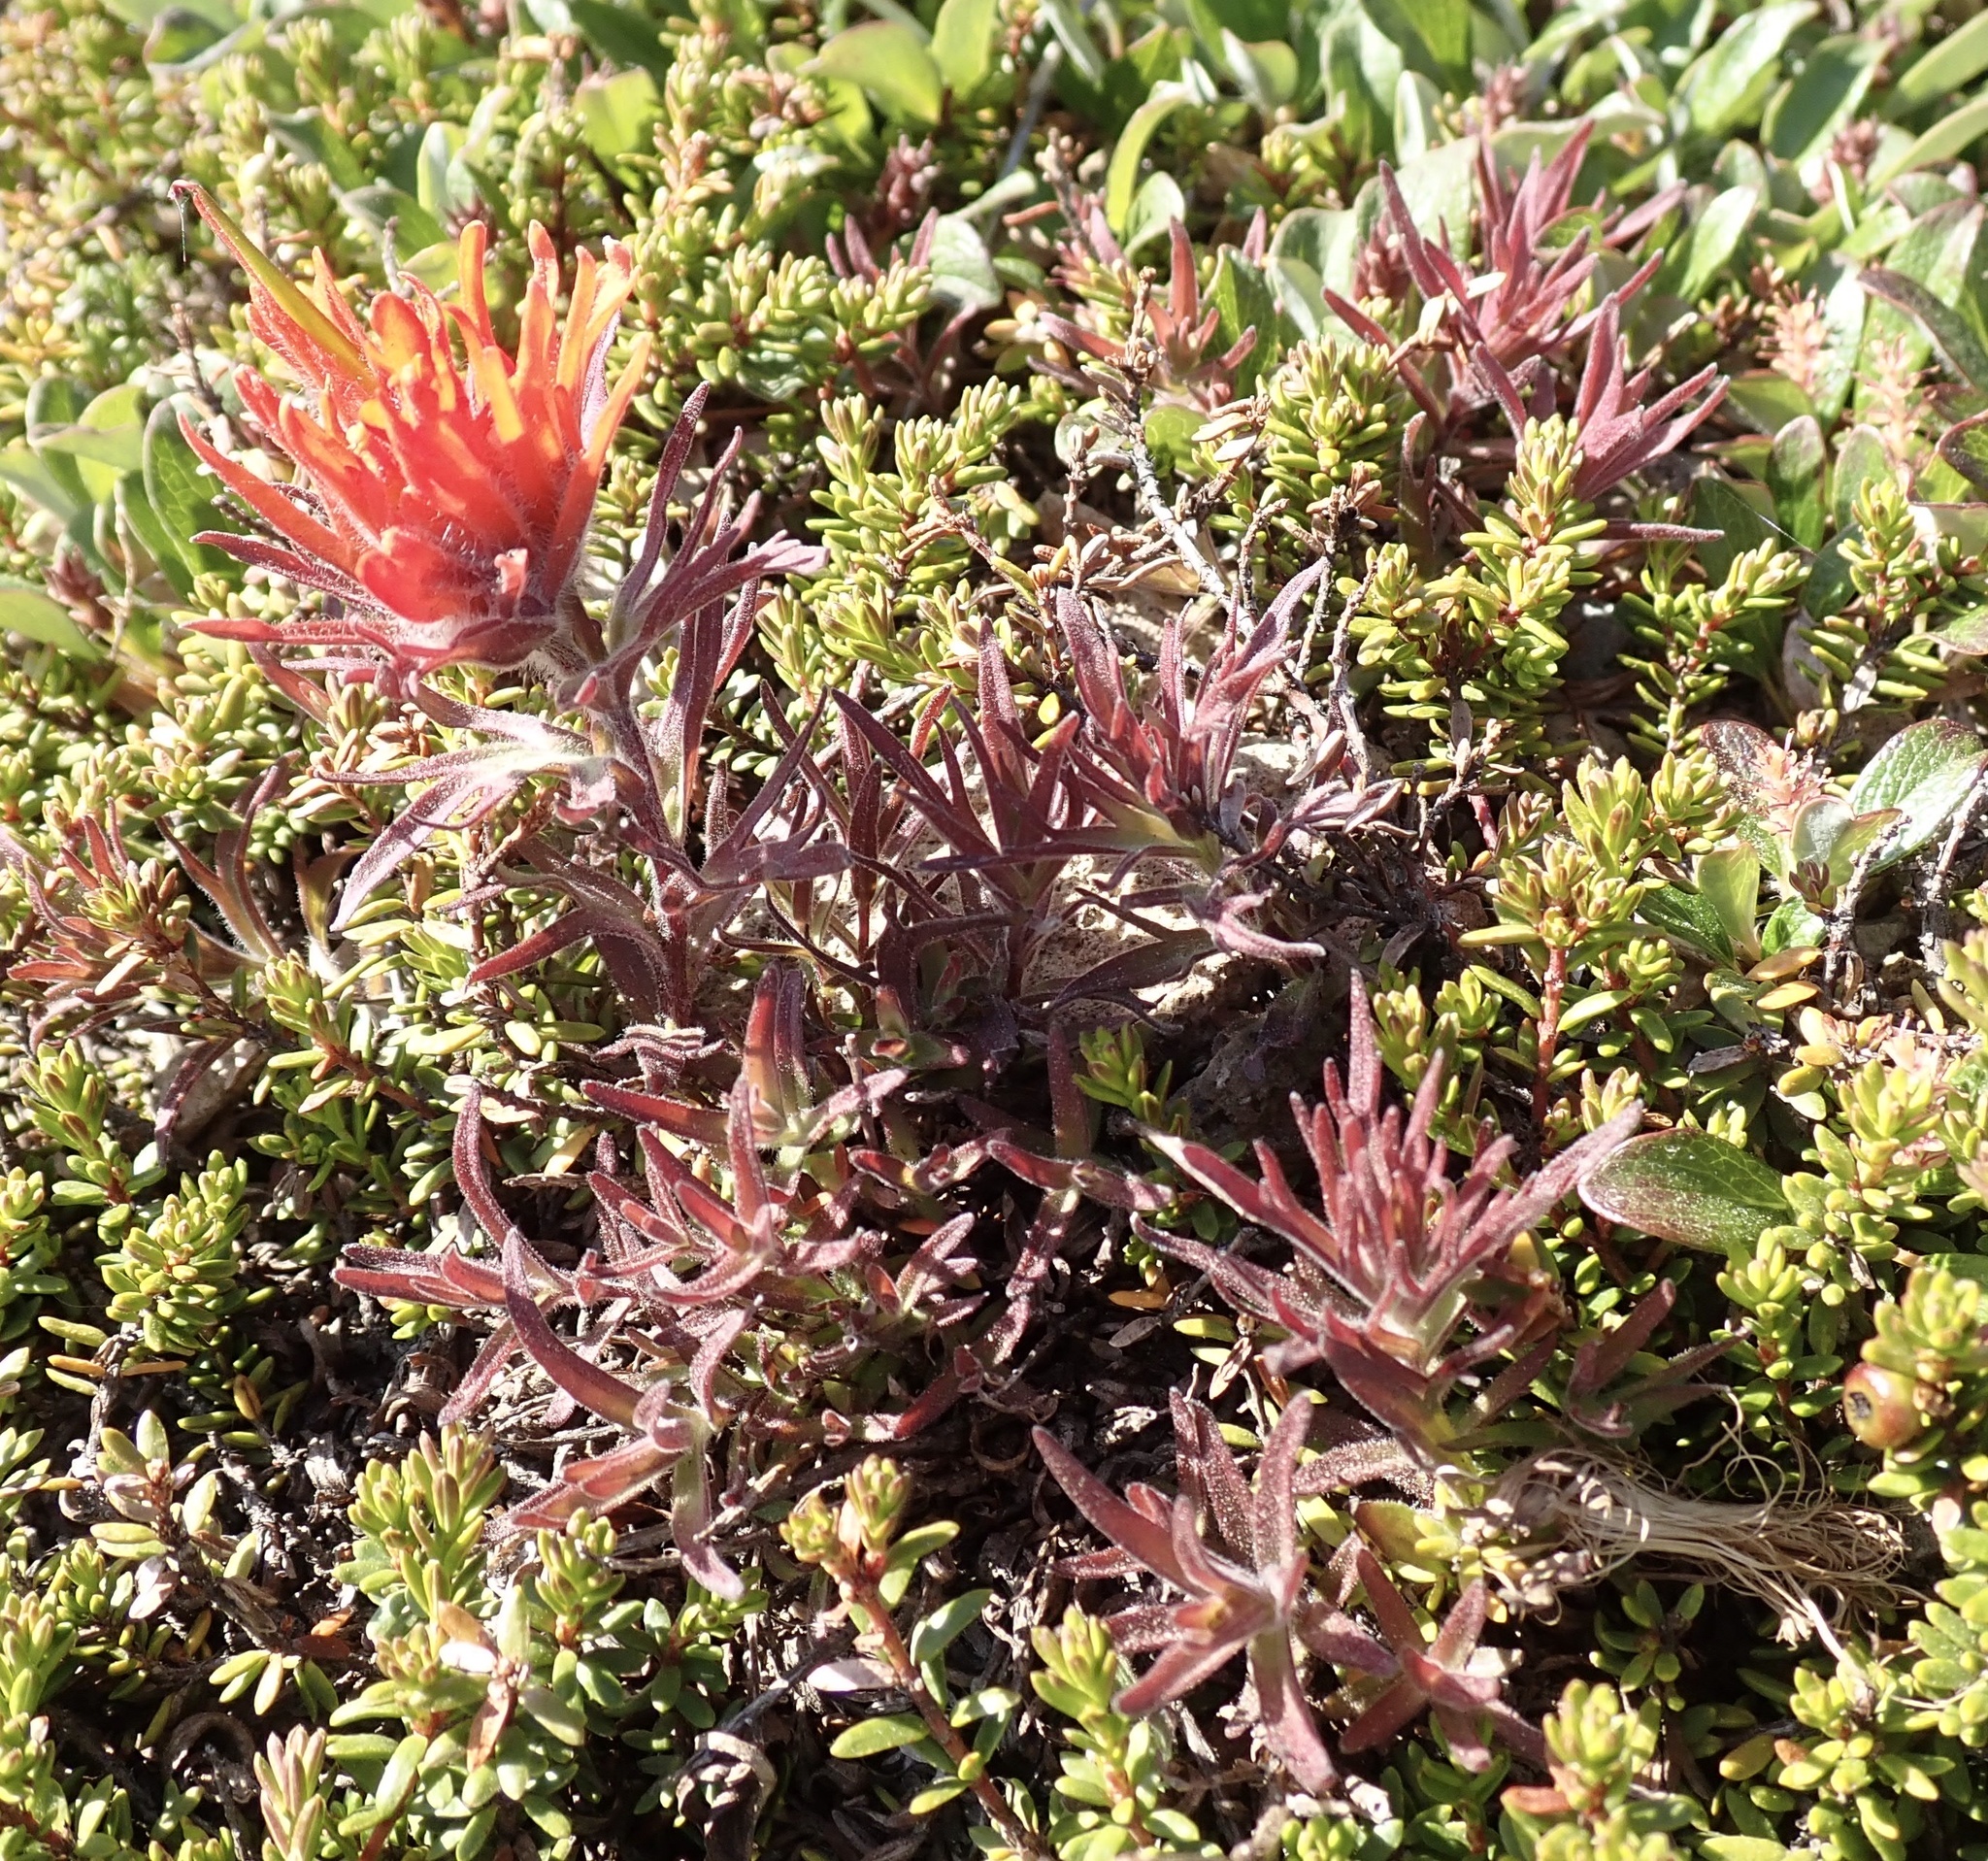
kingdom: Plantae
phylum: Tracheophyta
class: Magnoliopsida
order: Lamiales
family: Orobanchaceae
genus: Castilleja
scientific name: Castilleja rupicola
